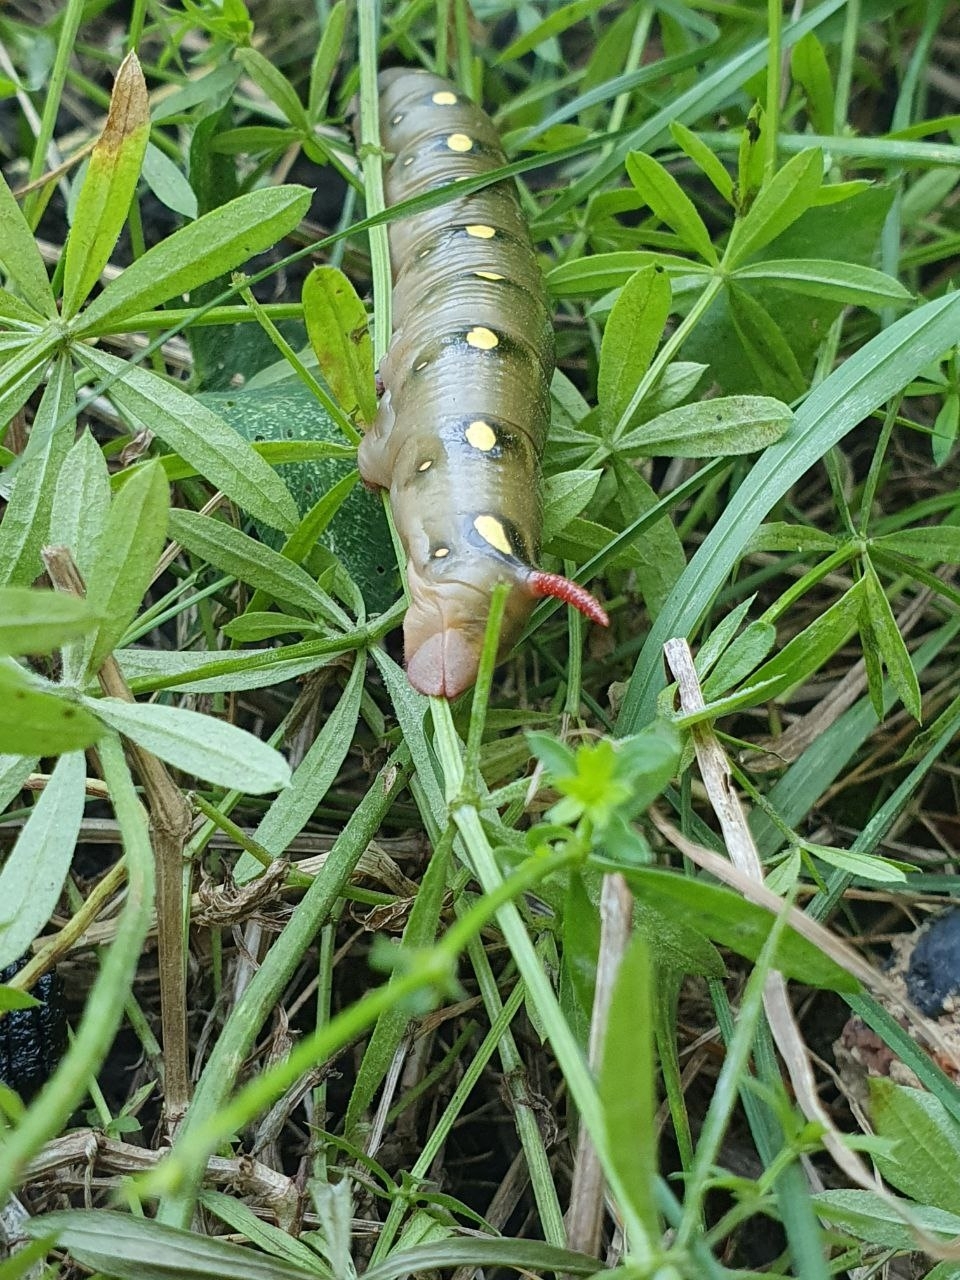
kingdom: Animalia
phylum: Arthropoda
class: Insecta
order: Lepidoptera
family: Sphingidae
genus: Hyles
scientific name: Hyles gallii
